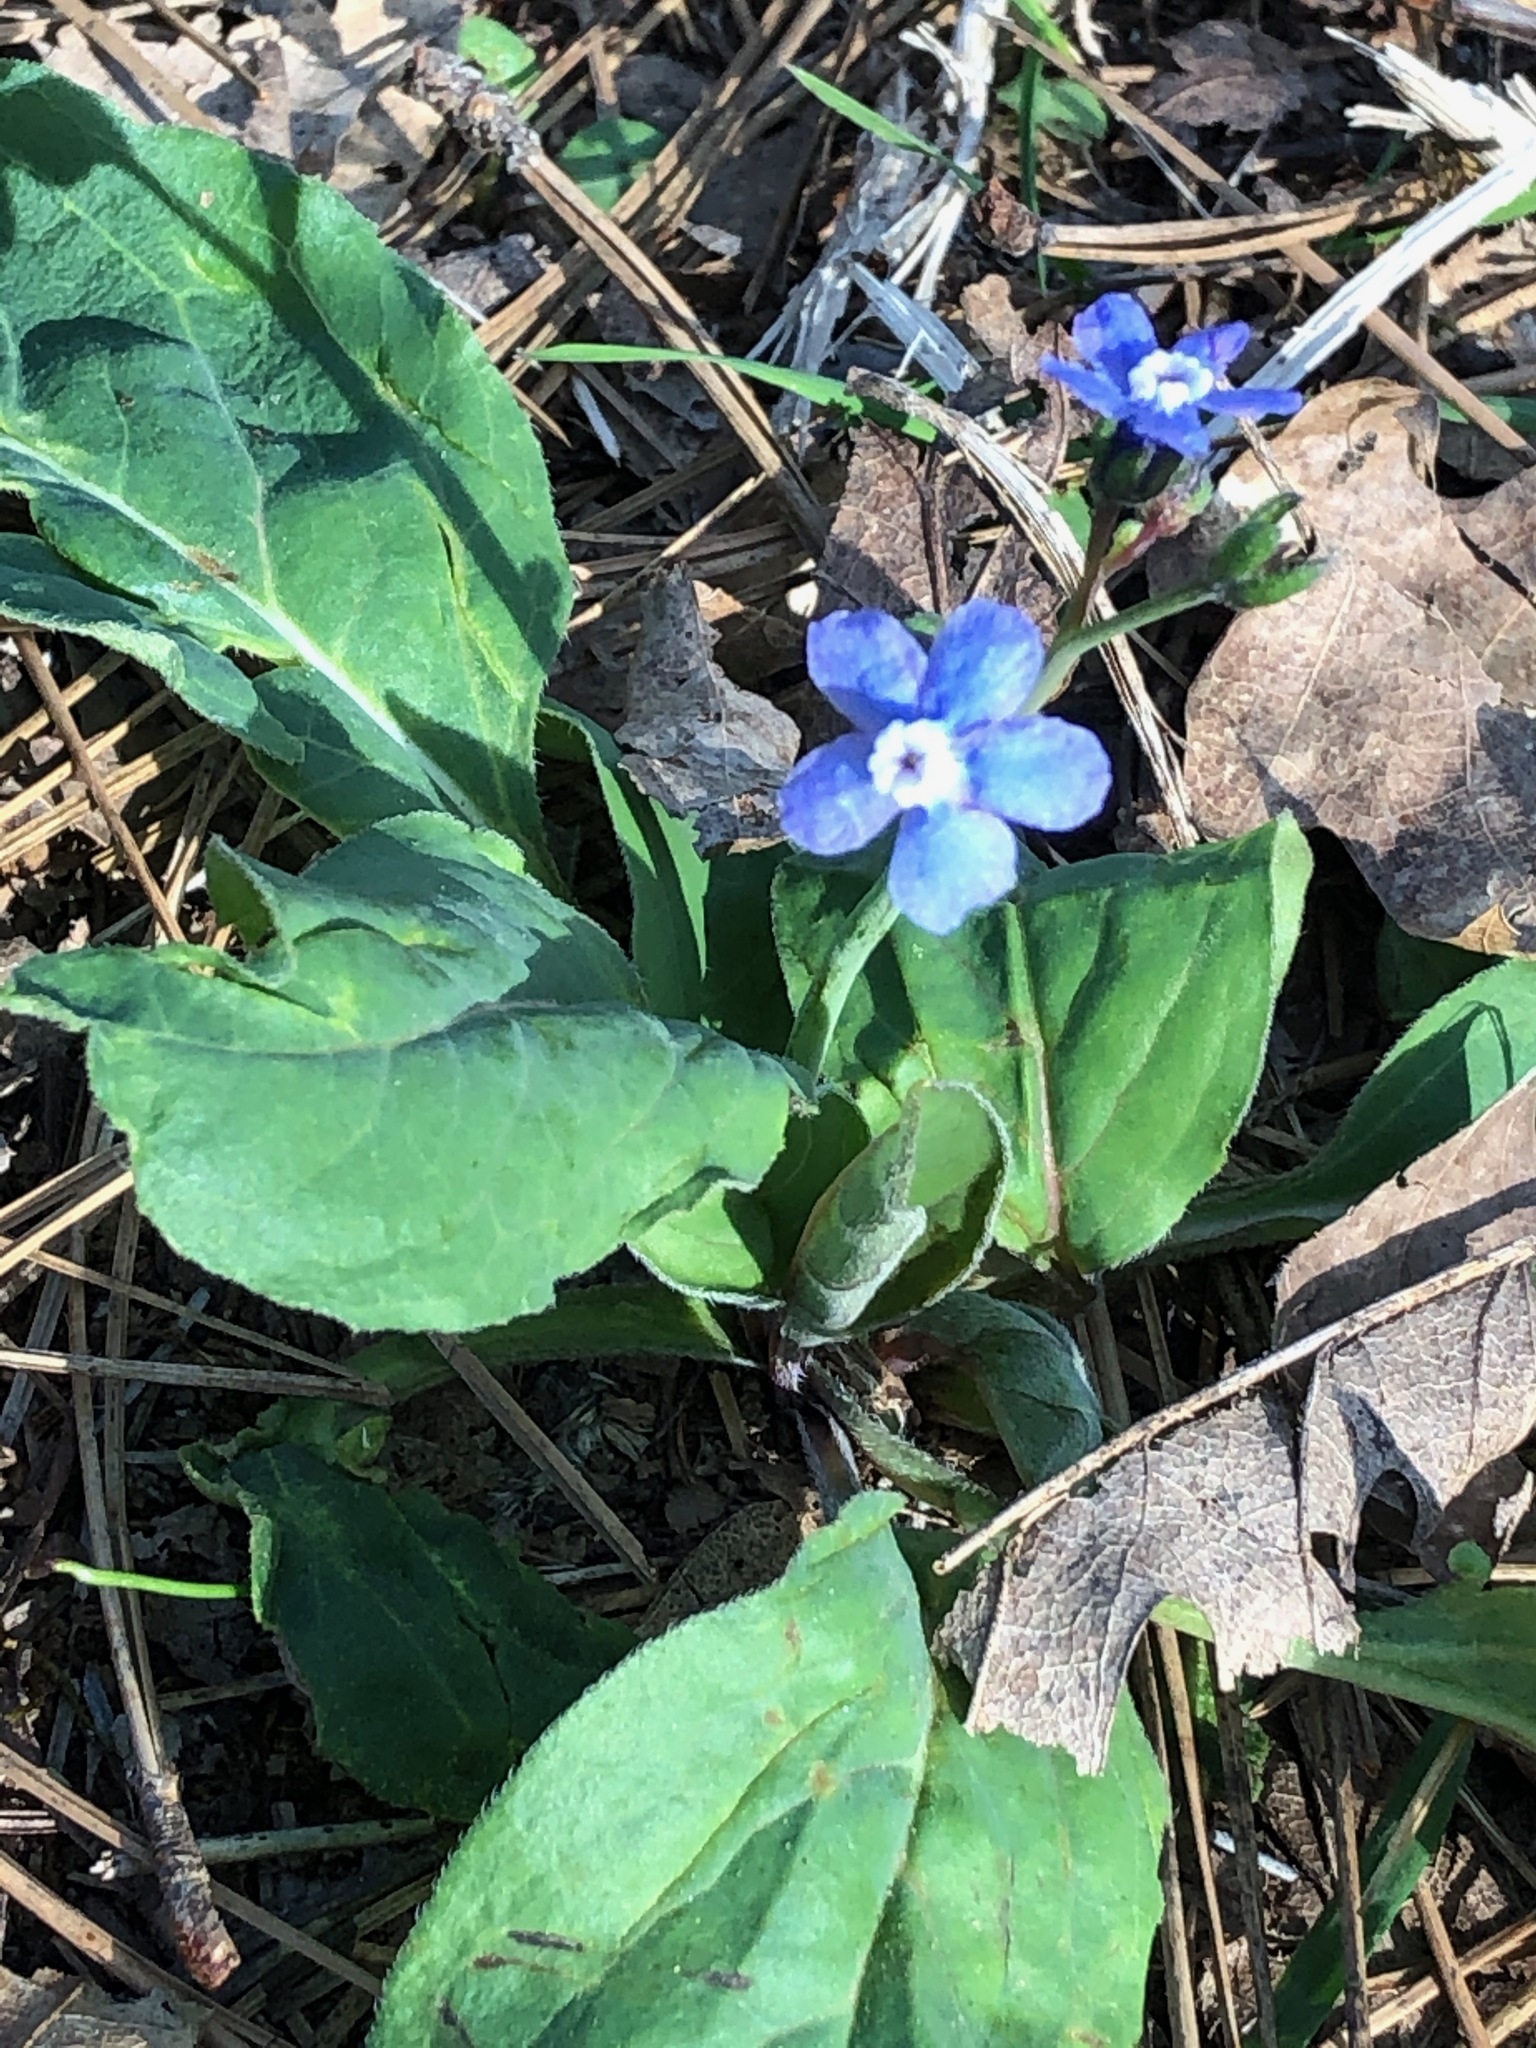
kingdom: Plantae
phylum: Tracheophyta
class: Magnoliopsida
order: Boraginales
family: Boraginaceae
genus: Adelinia
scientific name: Adelinia grande
